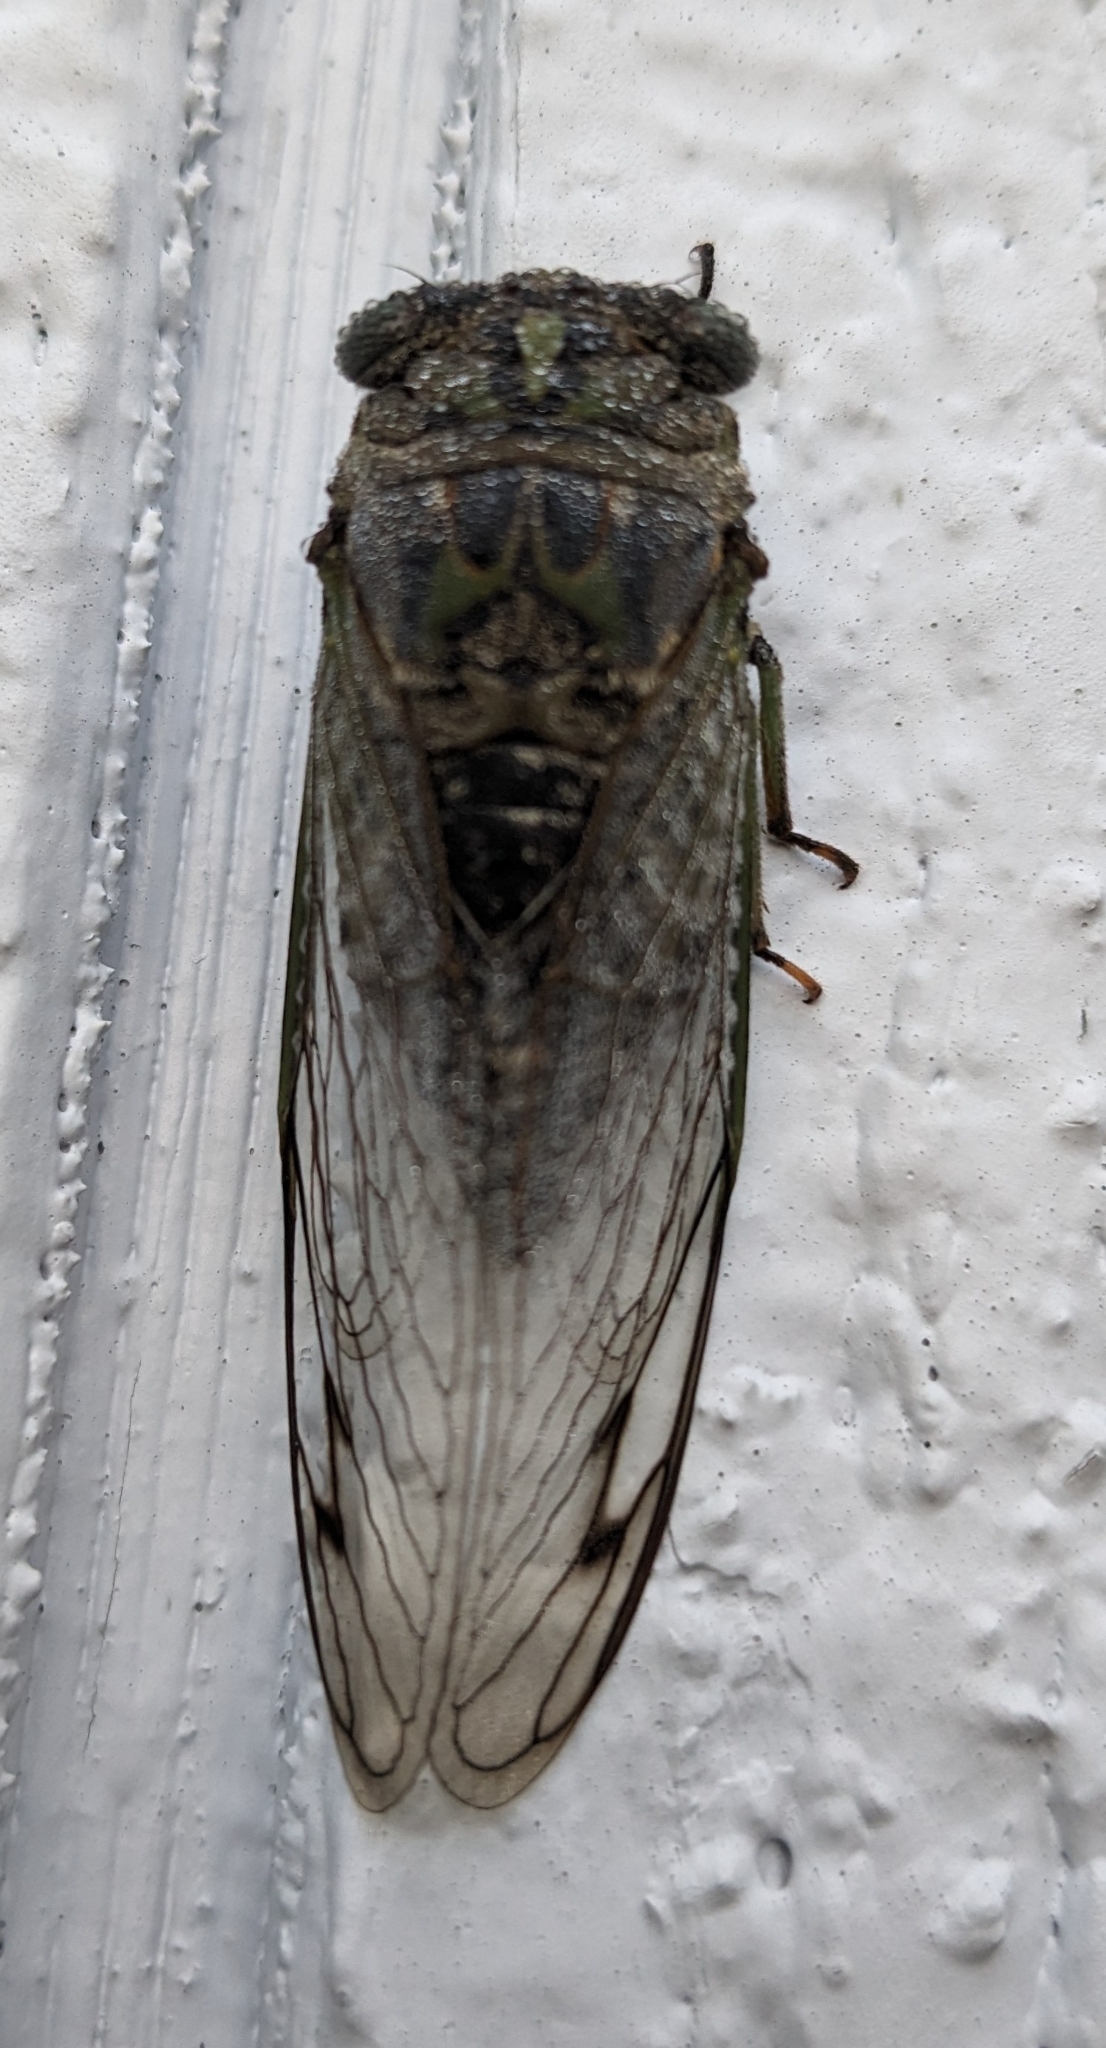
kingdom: Animalia
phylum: Arthropoda
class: Insecta
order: Hemiptera
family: Cicadidae
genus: Neotibicen
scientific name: Neotibicen canicularis
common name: God-day cicada
